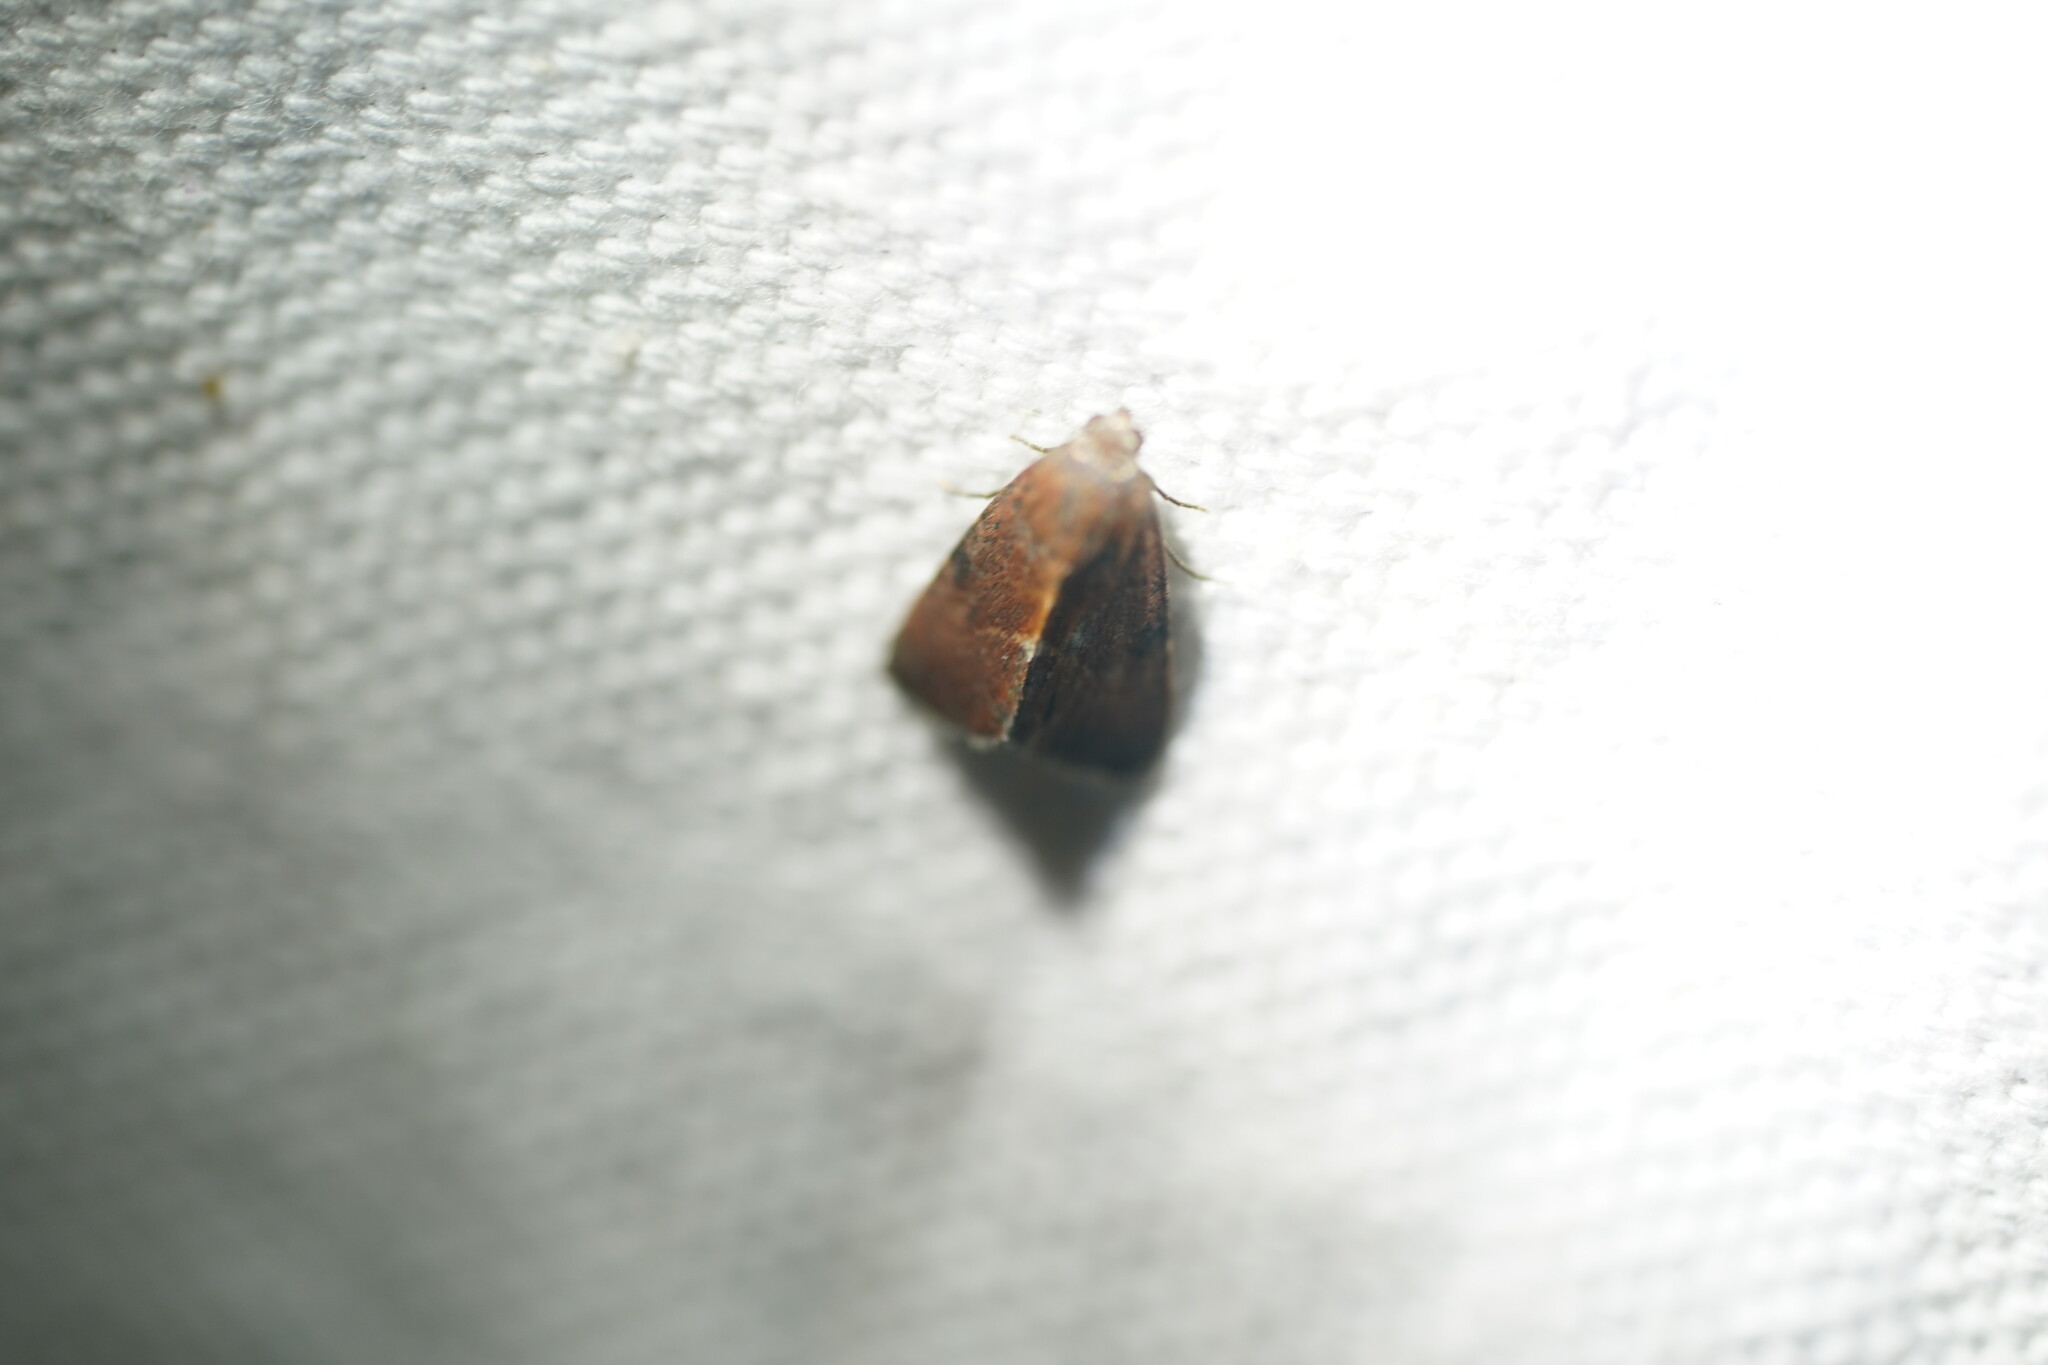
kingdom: Animalia
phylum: Arthropoda
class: Insecta
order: Lepidoptera
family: Noctuidae
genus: Galgula
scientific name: Galgula partita
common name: Wedgeling
